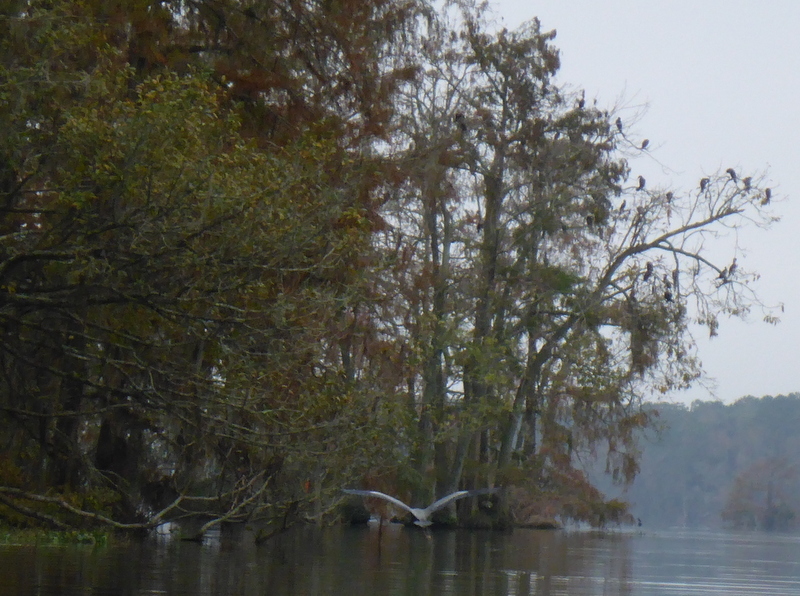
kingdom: Animalia
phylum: Chordata
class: Aves
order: Pelecaniformes
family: Ardeidae
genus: Ardea
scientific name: Ardea herodias
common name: Great blue heron
